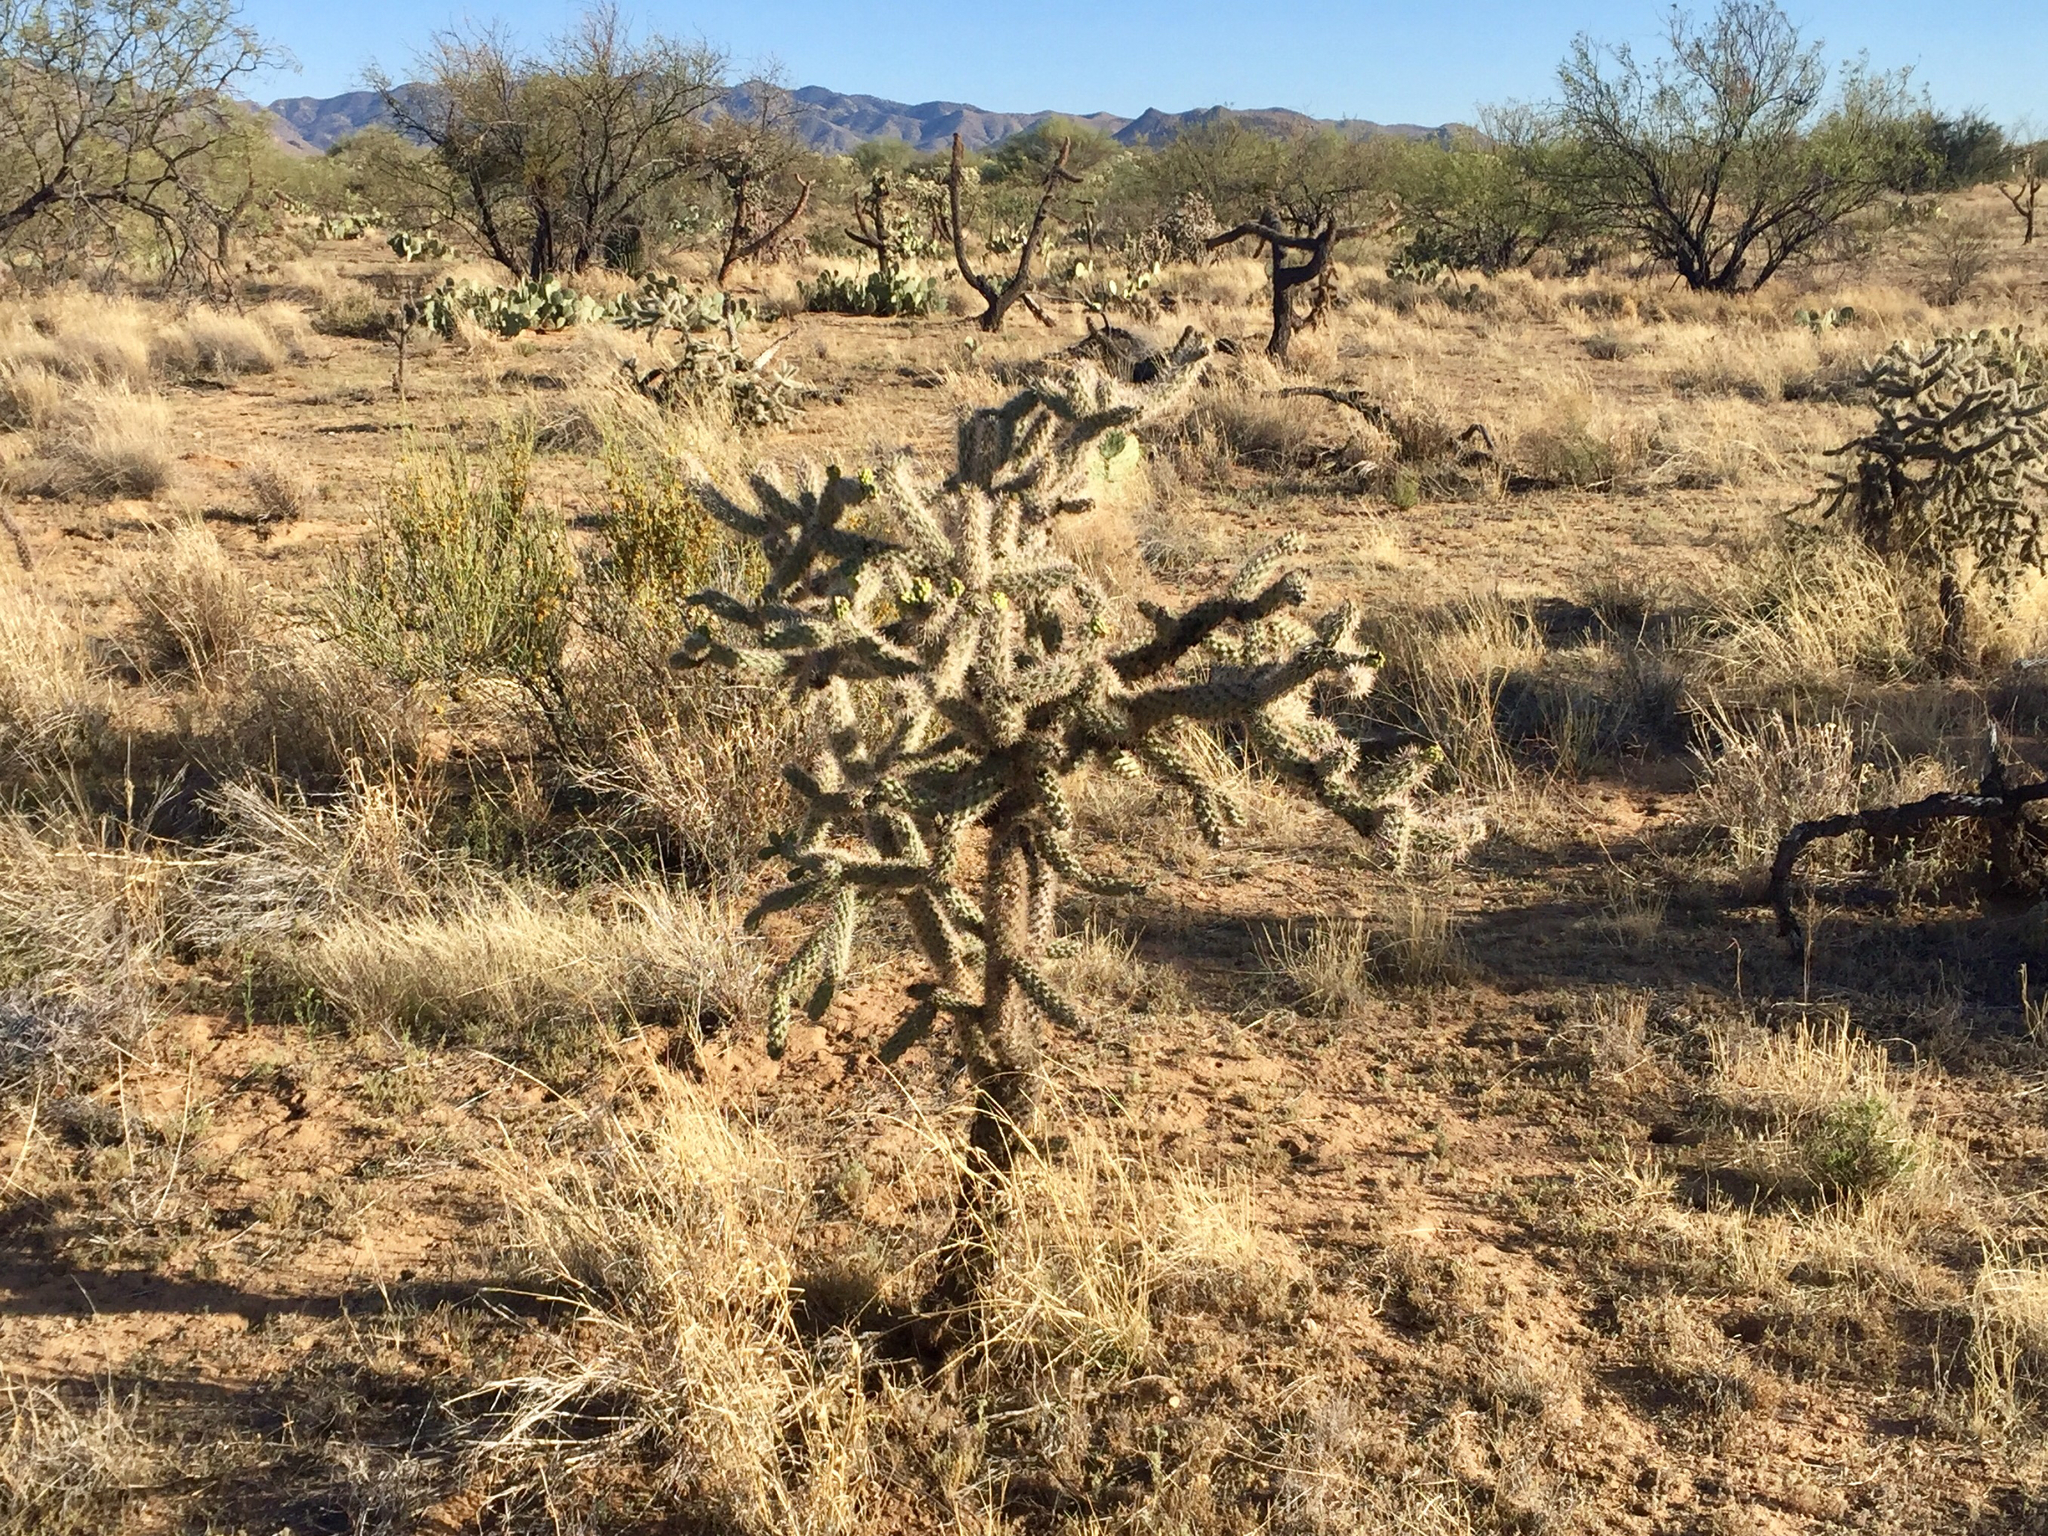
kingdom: Plantae
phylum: Tracheophyta
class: Magnoliopsida
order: Caryophyllales
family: Cactaceae
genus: Cylindropuntia
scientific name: Cylindropuntia imbricata
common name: Candelabrum cactus
